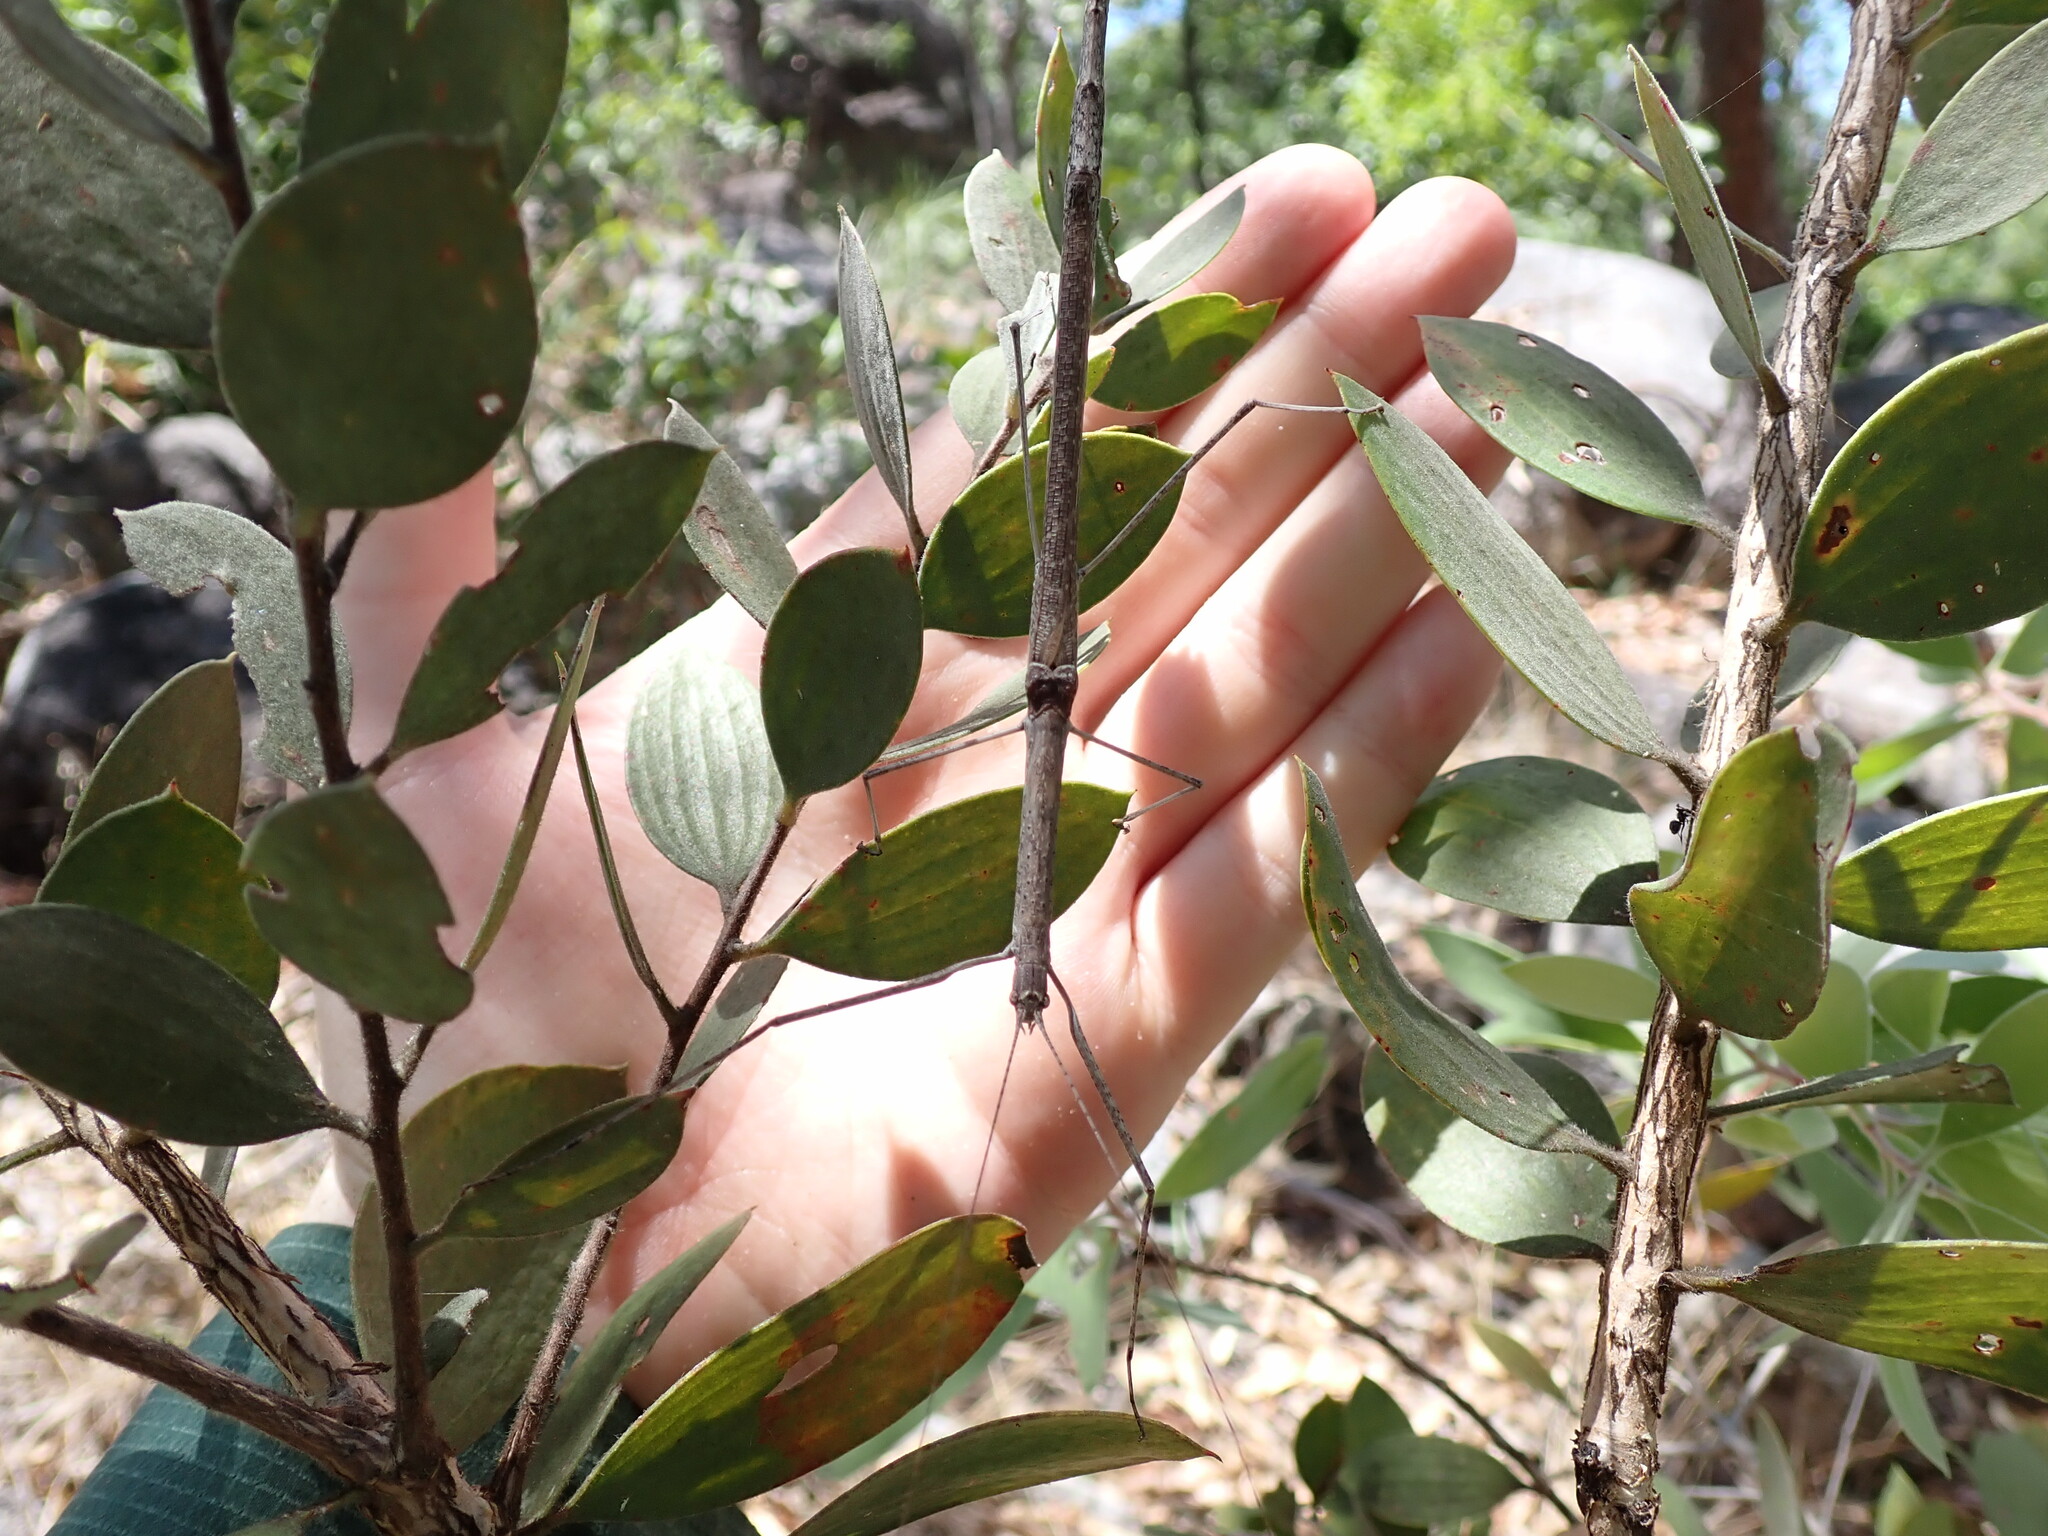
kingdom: Animalia
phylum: Arthropoda
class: Insecta
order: Phasmida
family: Lonchodidae
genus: Scionecra
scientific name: Scionecra milledgei
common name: Milledge's stick-insect
